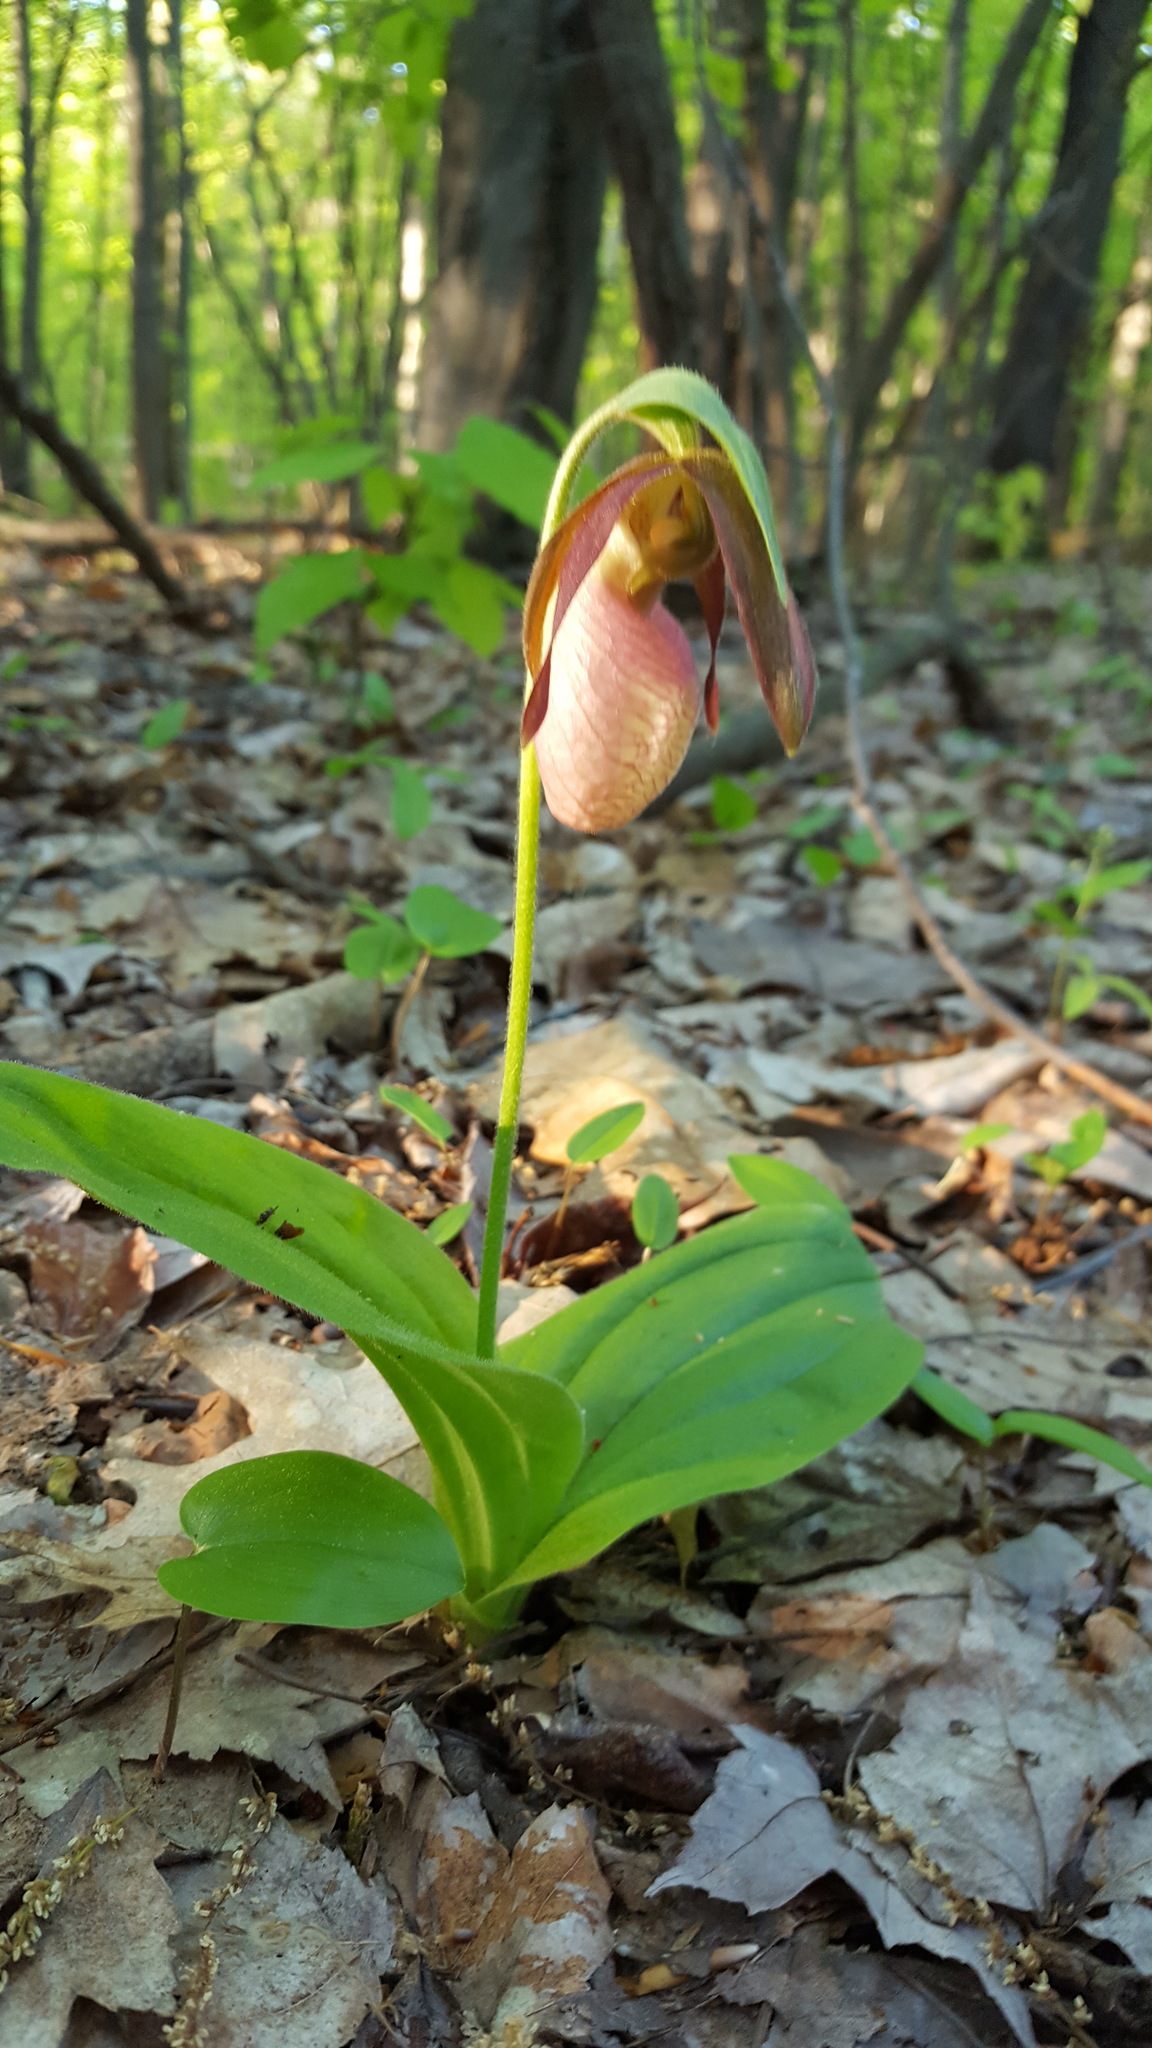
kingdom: Plantae
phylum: Tracheophyta
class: Liliopsida
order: Asparagales
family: Orchidaceae
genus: Cypripedium
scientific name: Cypripedium acaule
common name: Pink lady's-slipper
